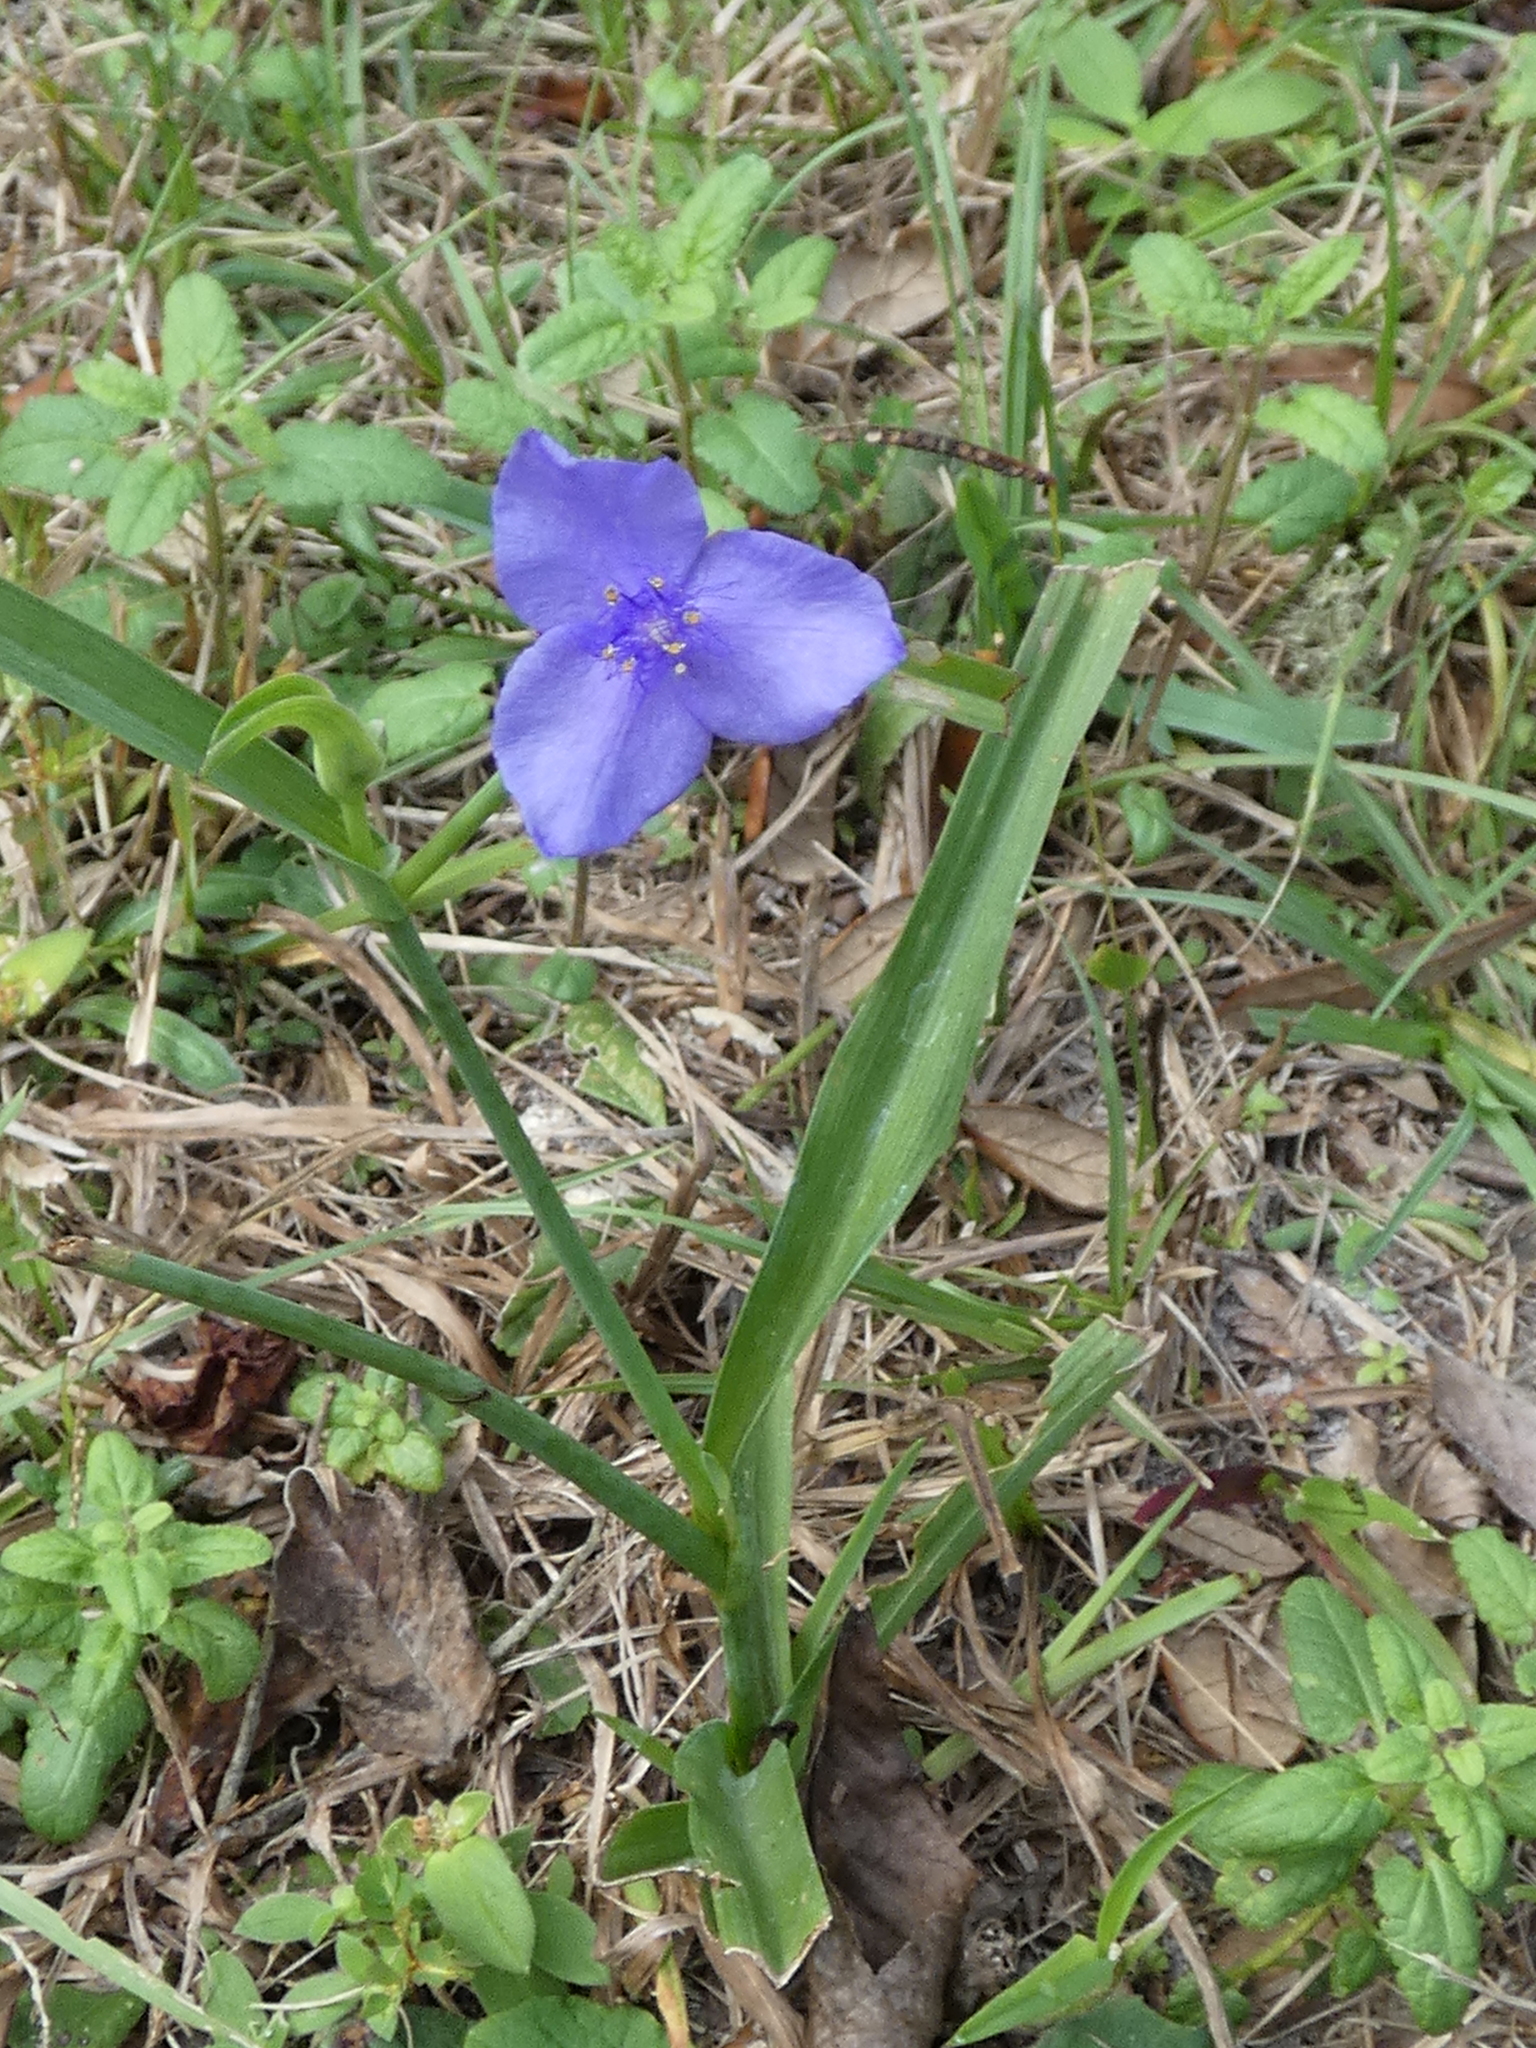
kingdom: Plantae
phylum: Tracheophyta
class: Liliopsida
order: Commelinales
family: Commelinaceae
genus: Tradescantia
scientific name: Tradescantia ohiensis
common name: Ohio spiderwort
